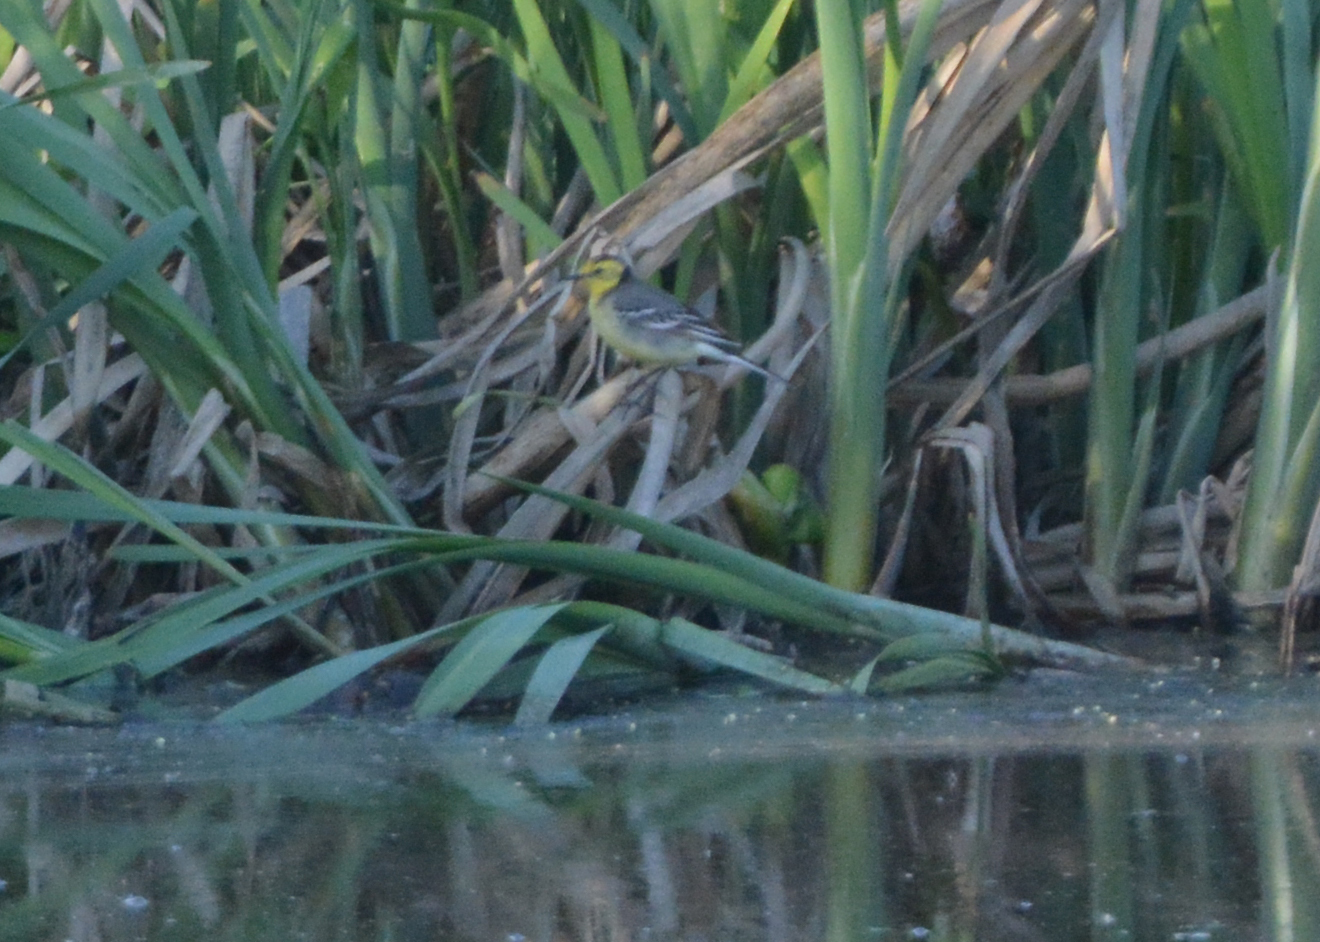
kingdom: Animalia
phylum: Chordata
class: Aves
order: Passeriformes
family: Motacillidae
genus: Motacilla
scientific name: Motacilla citreola
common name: Citrine wagtail
